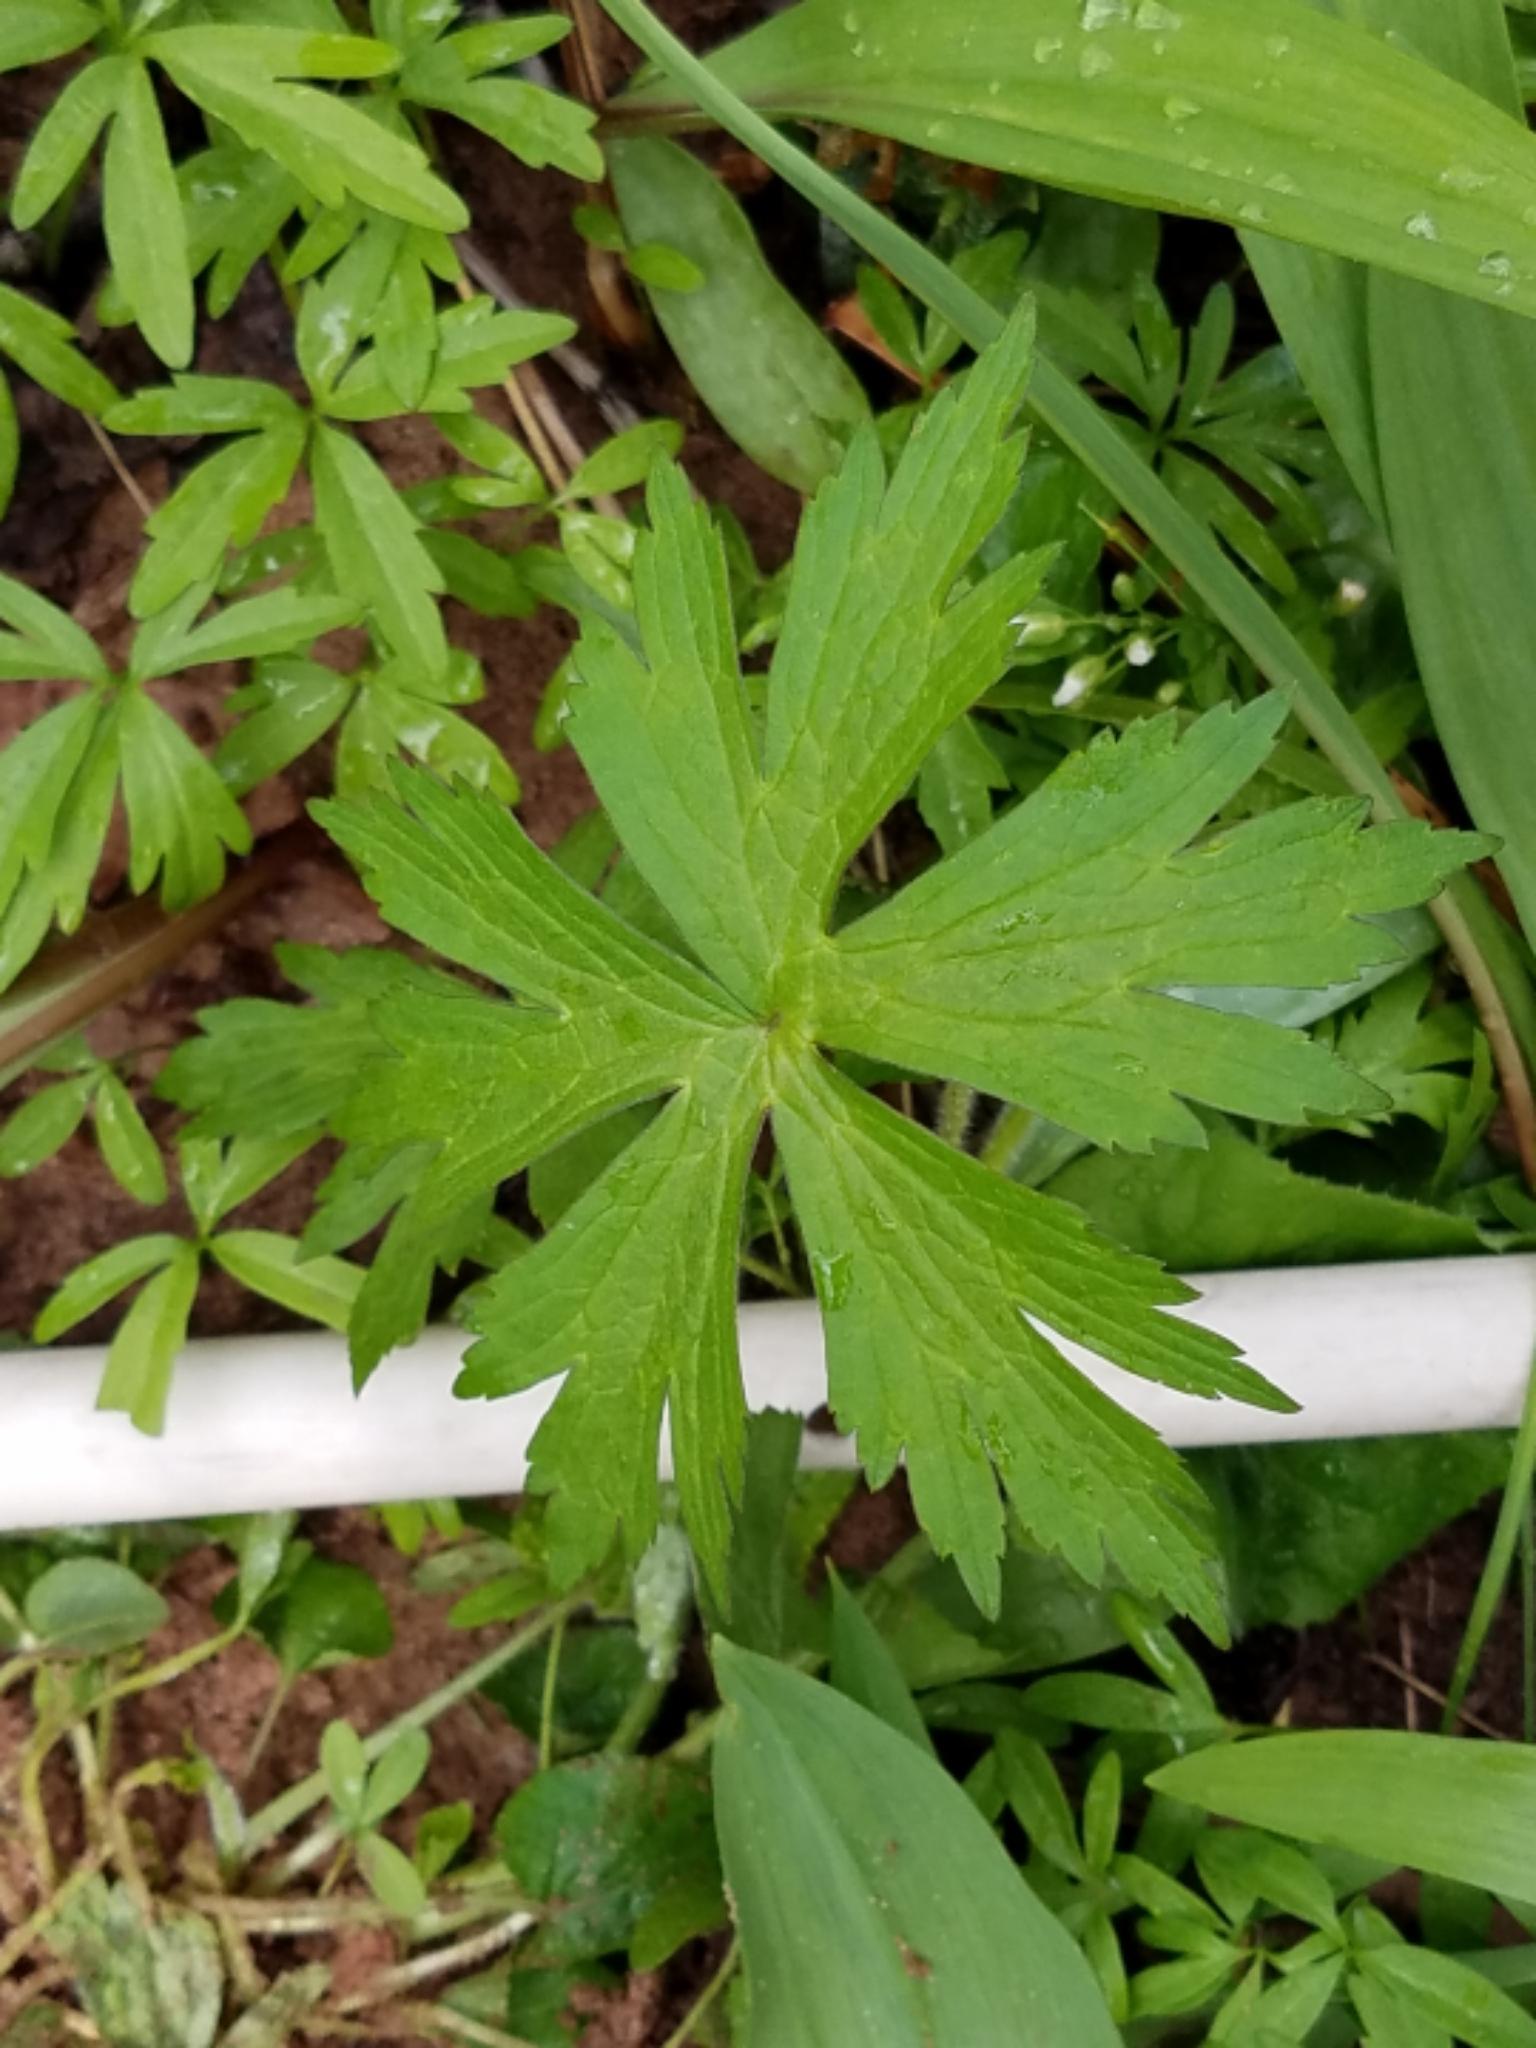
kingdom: Plantae
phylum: Tracheophyta
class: Magnoliopsida
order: Geraniales
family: Geraniaceae
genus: Geranium
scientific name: Geranium maculatum
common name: Spotted geranium
